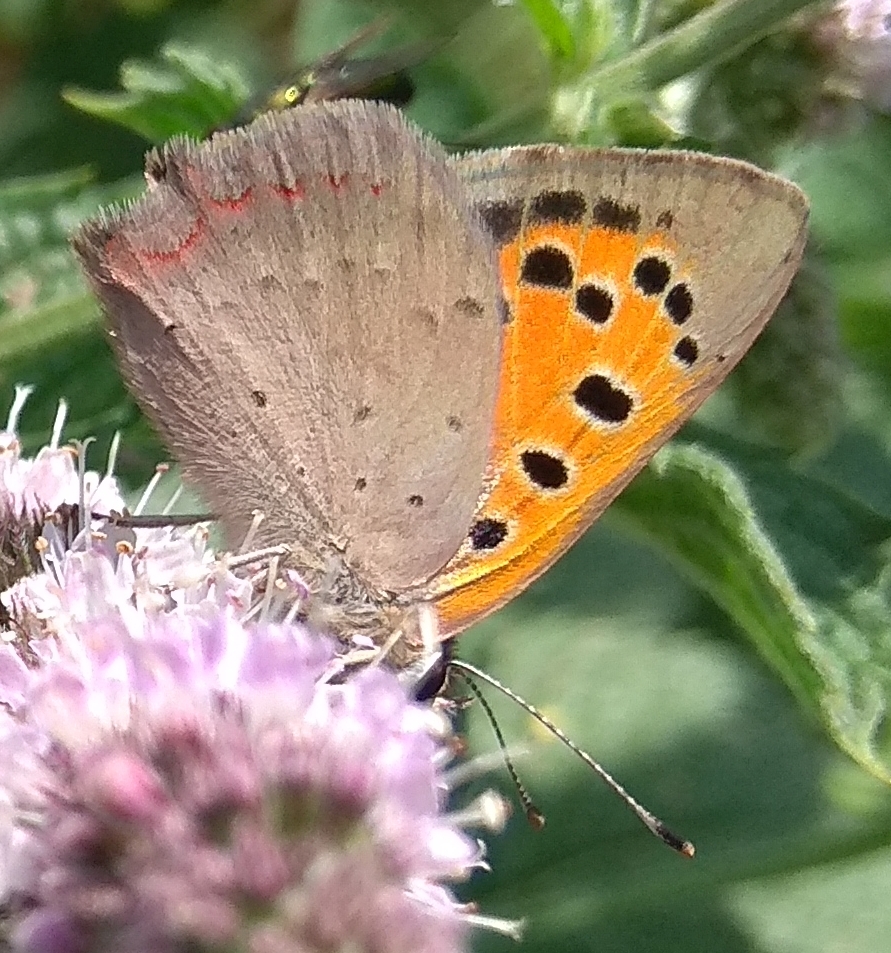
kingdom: Animalia
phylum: Arthropoda
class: Insecta
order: Lepidoptera
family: Lycaenidae
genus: Lycaena
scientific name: Lycaena phlaeas
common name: Small copper
